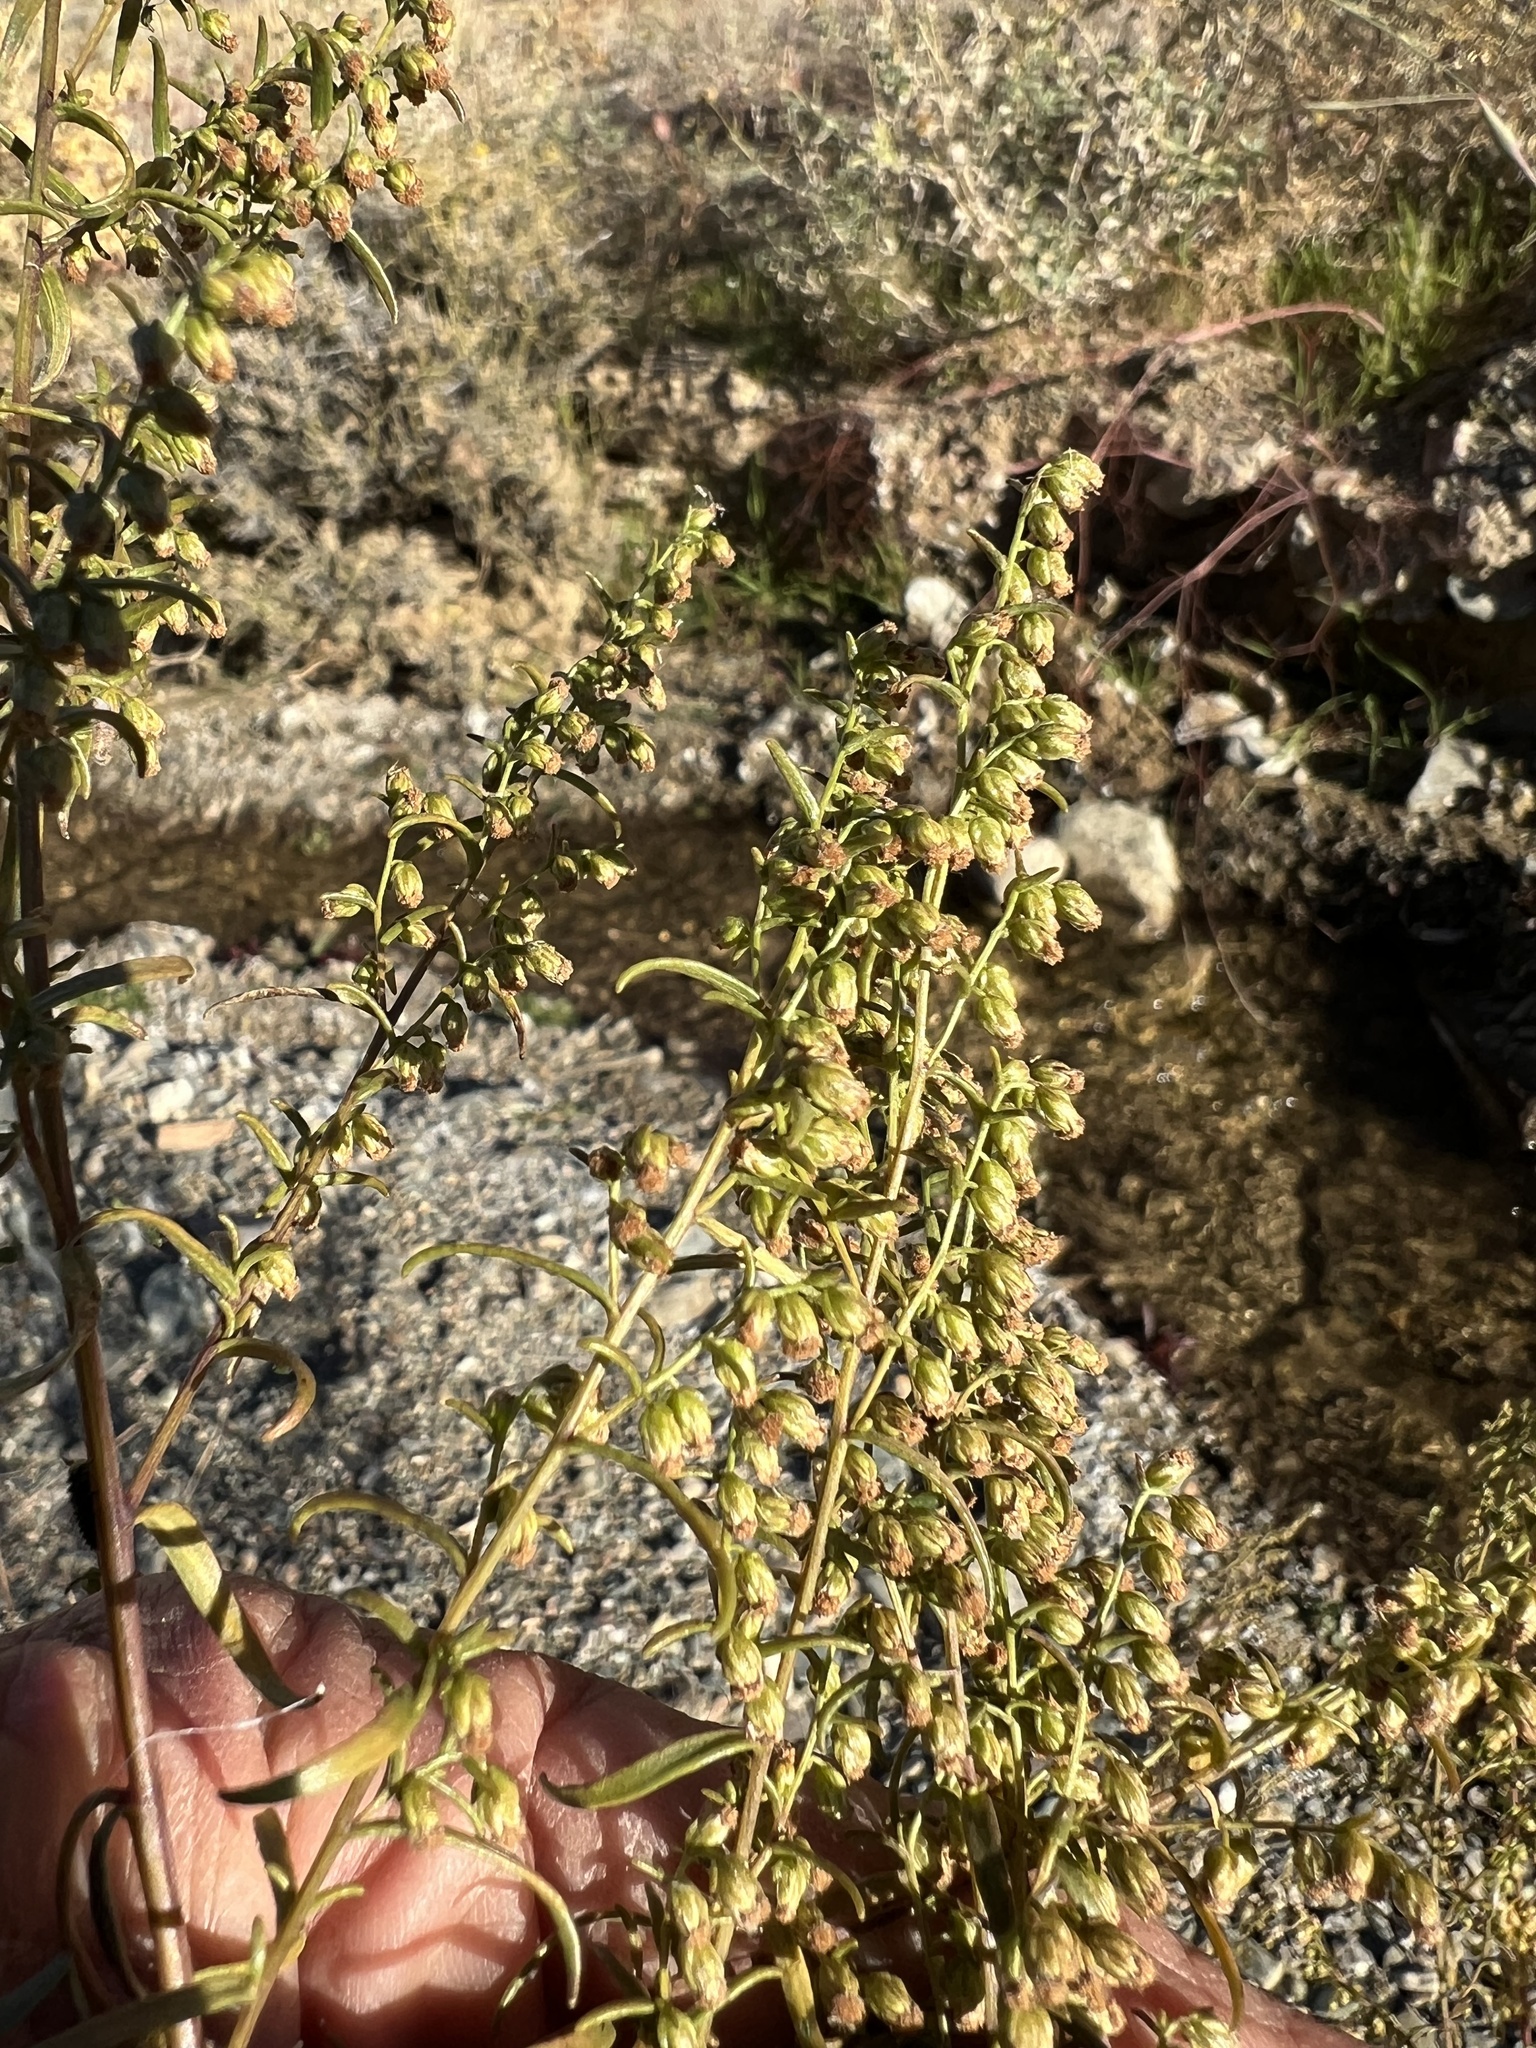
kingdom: Plantae
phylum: Tracheophyta
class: Magnoliopsida
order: Asterales
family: Asteraceae
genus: Artemisia
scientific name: Artemisia dracunculus
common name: Tarragon
